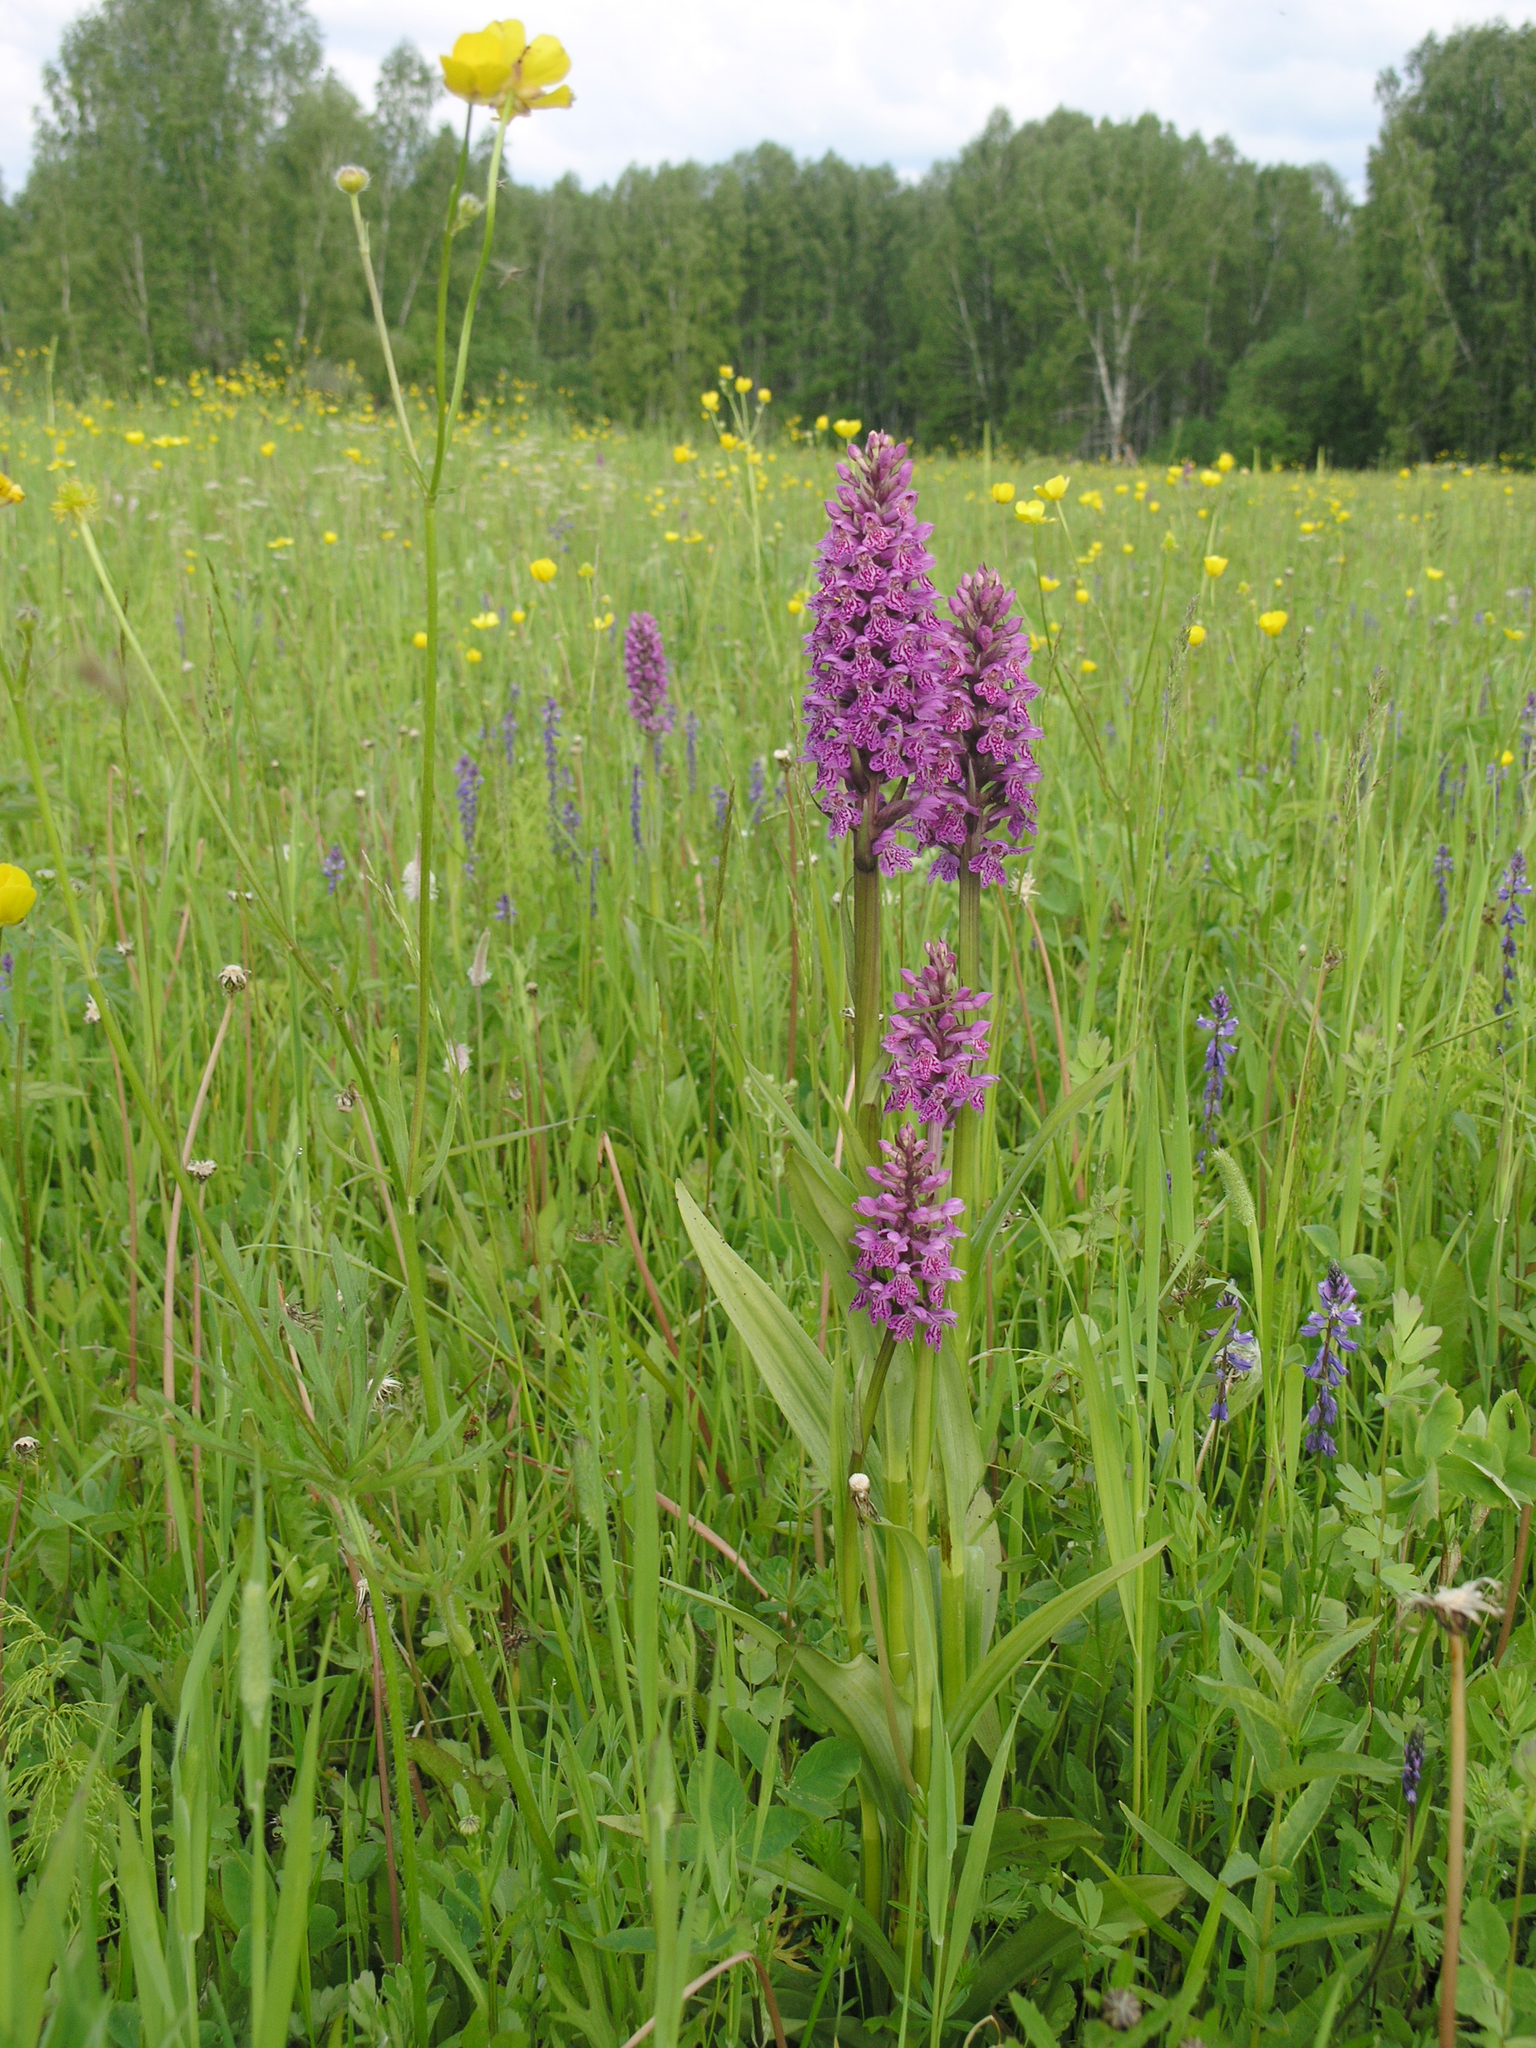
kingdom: Plantae
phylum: Tracheophyta
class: Liliopsida
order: Asparagales
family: Orchidaceae
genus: Dactylorhiza
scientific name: Dactylorhiza sibirica
